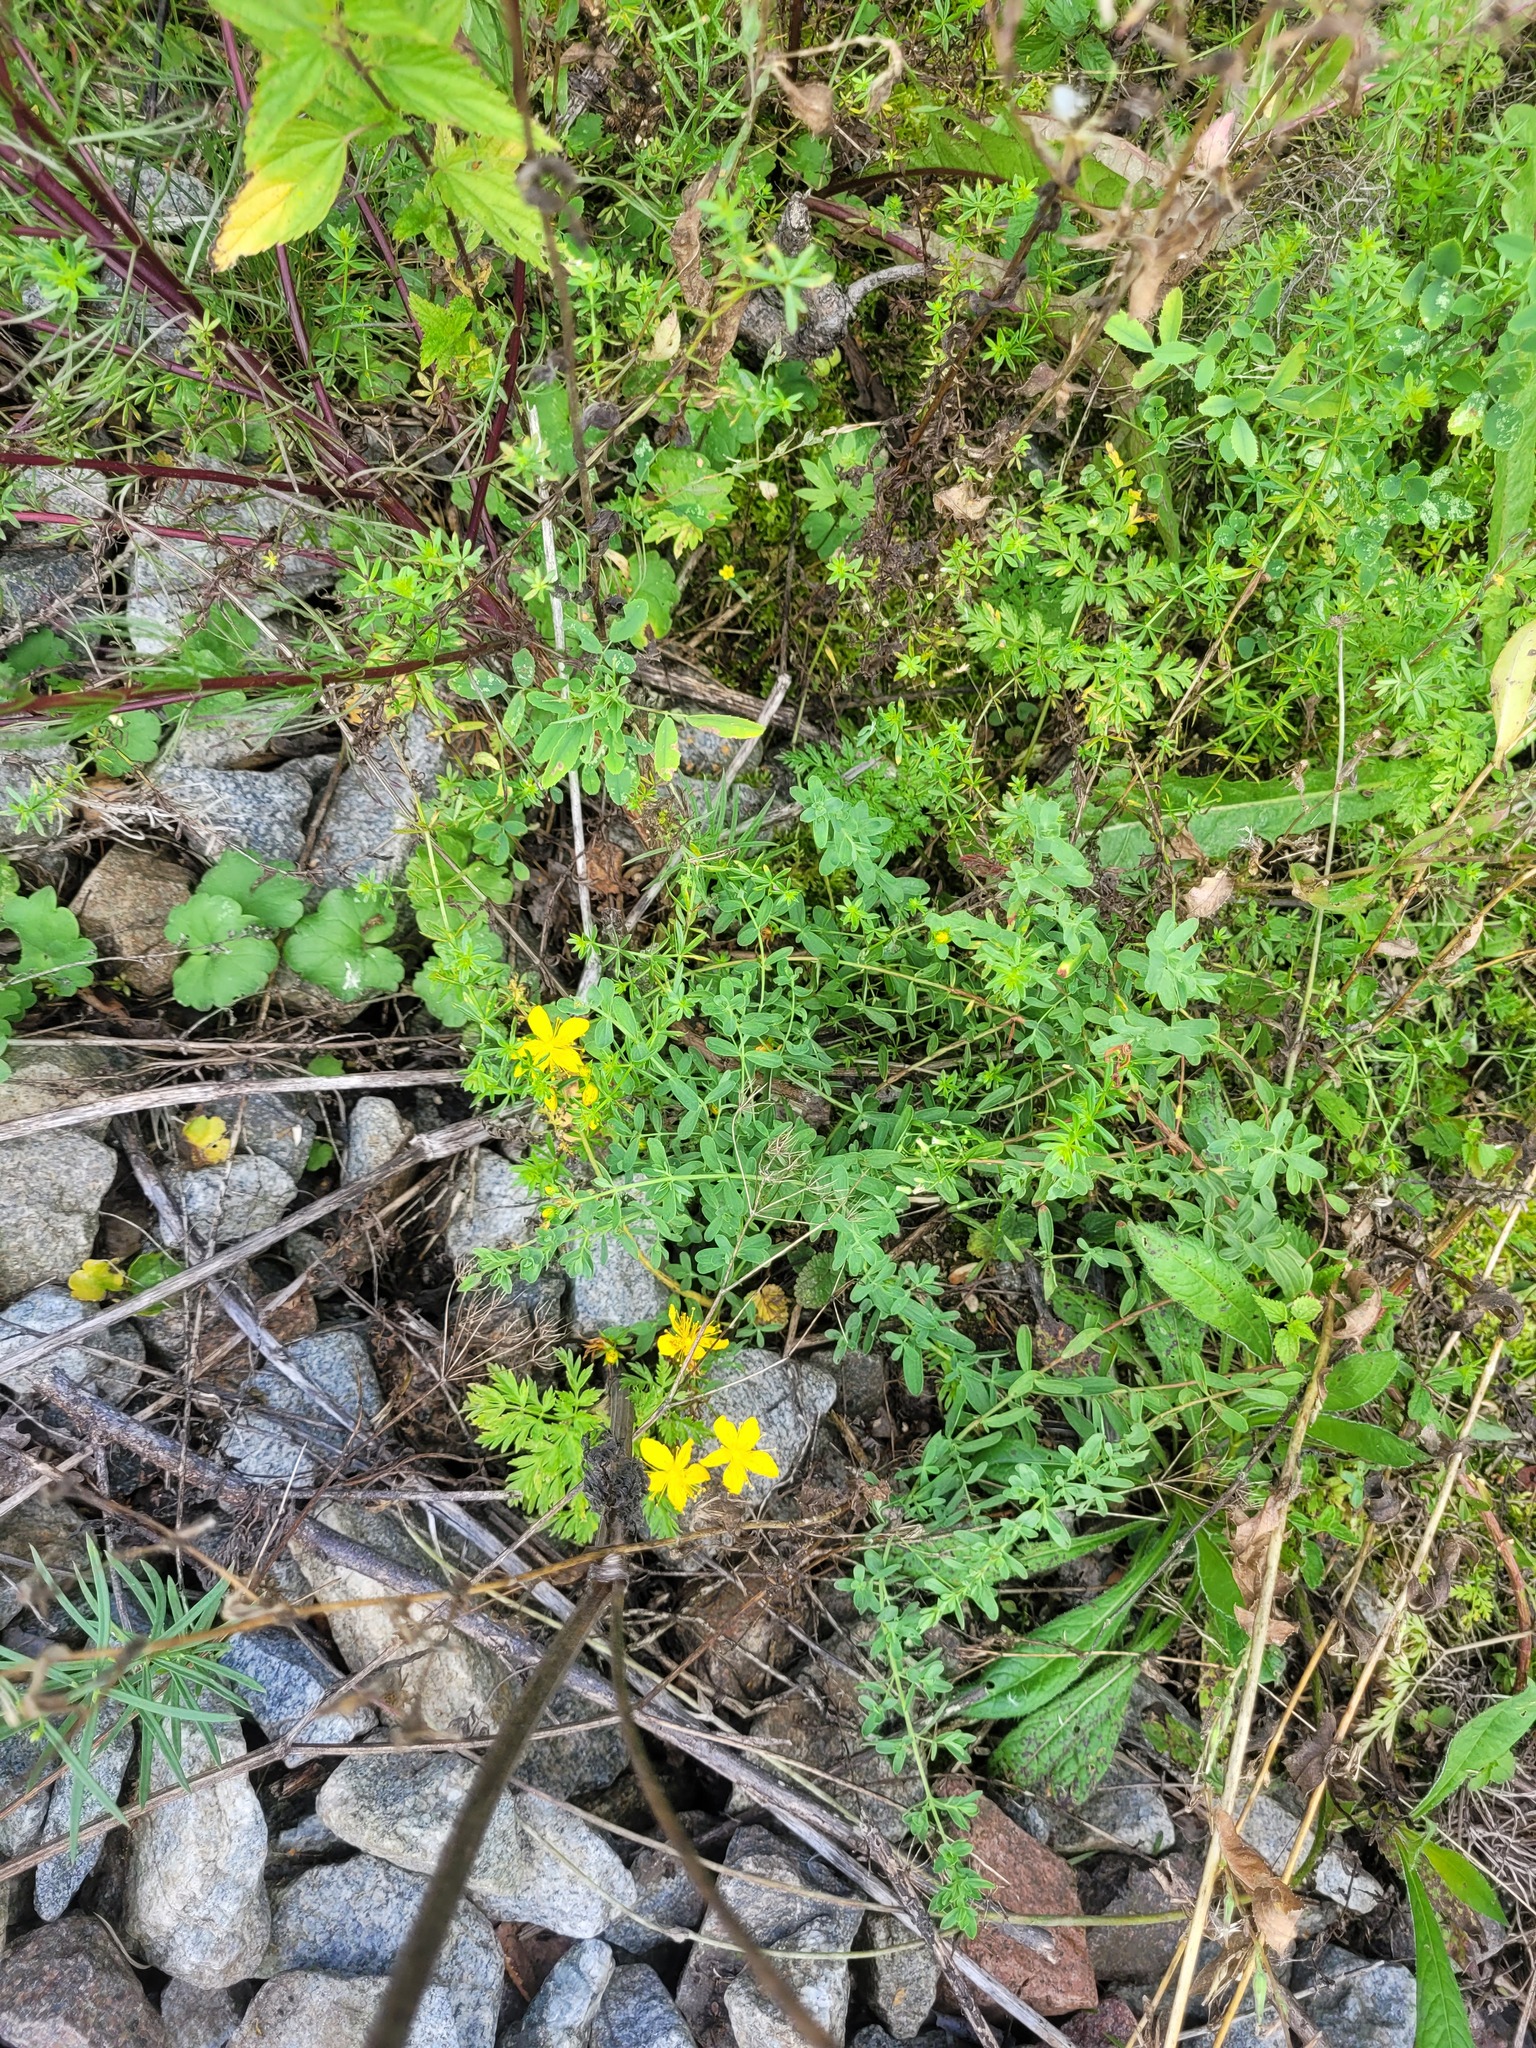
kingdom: Plantae
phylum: Tracheophyta
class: Magnoliopsida
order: Malpighiales
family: Hypericaceae
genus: Hypericum
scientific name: Hypericum perforatum
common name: Common st. johnswort
